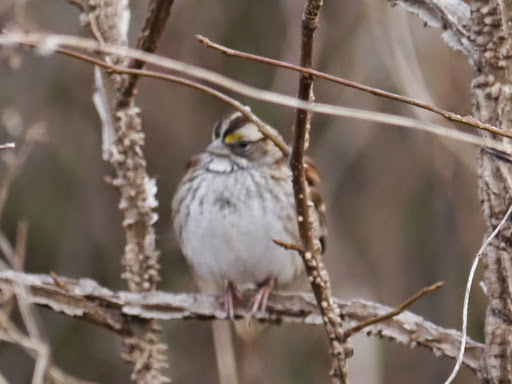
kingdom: Animalia
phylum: Chordata
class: Aves
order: Passeriformes
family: Passerellidae
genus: Zonotrichia
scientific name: Zonotrichia albicollis
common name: White-throated sparrow
